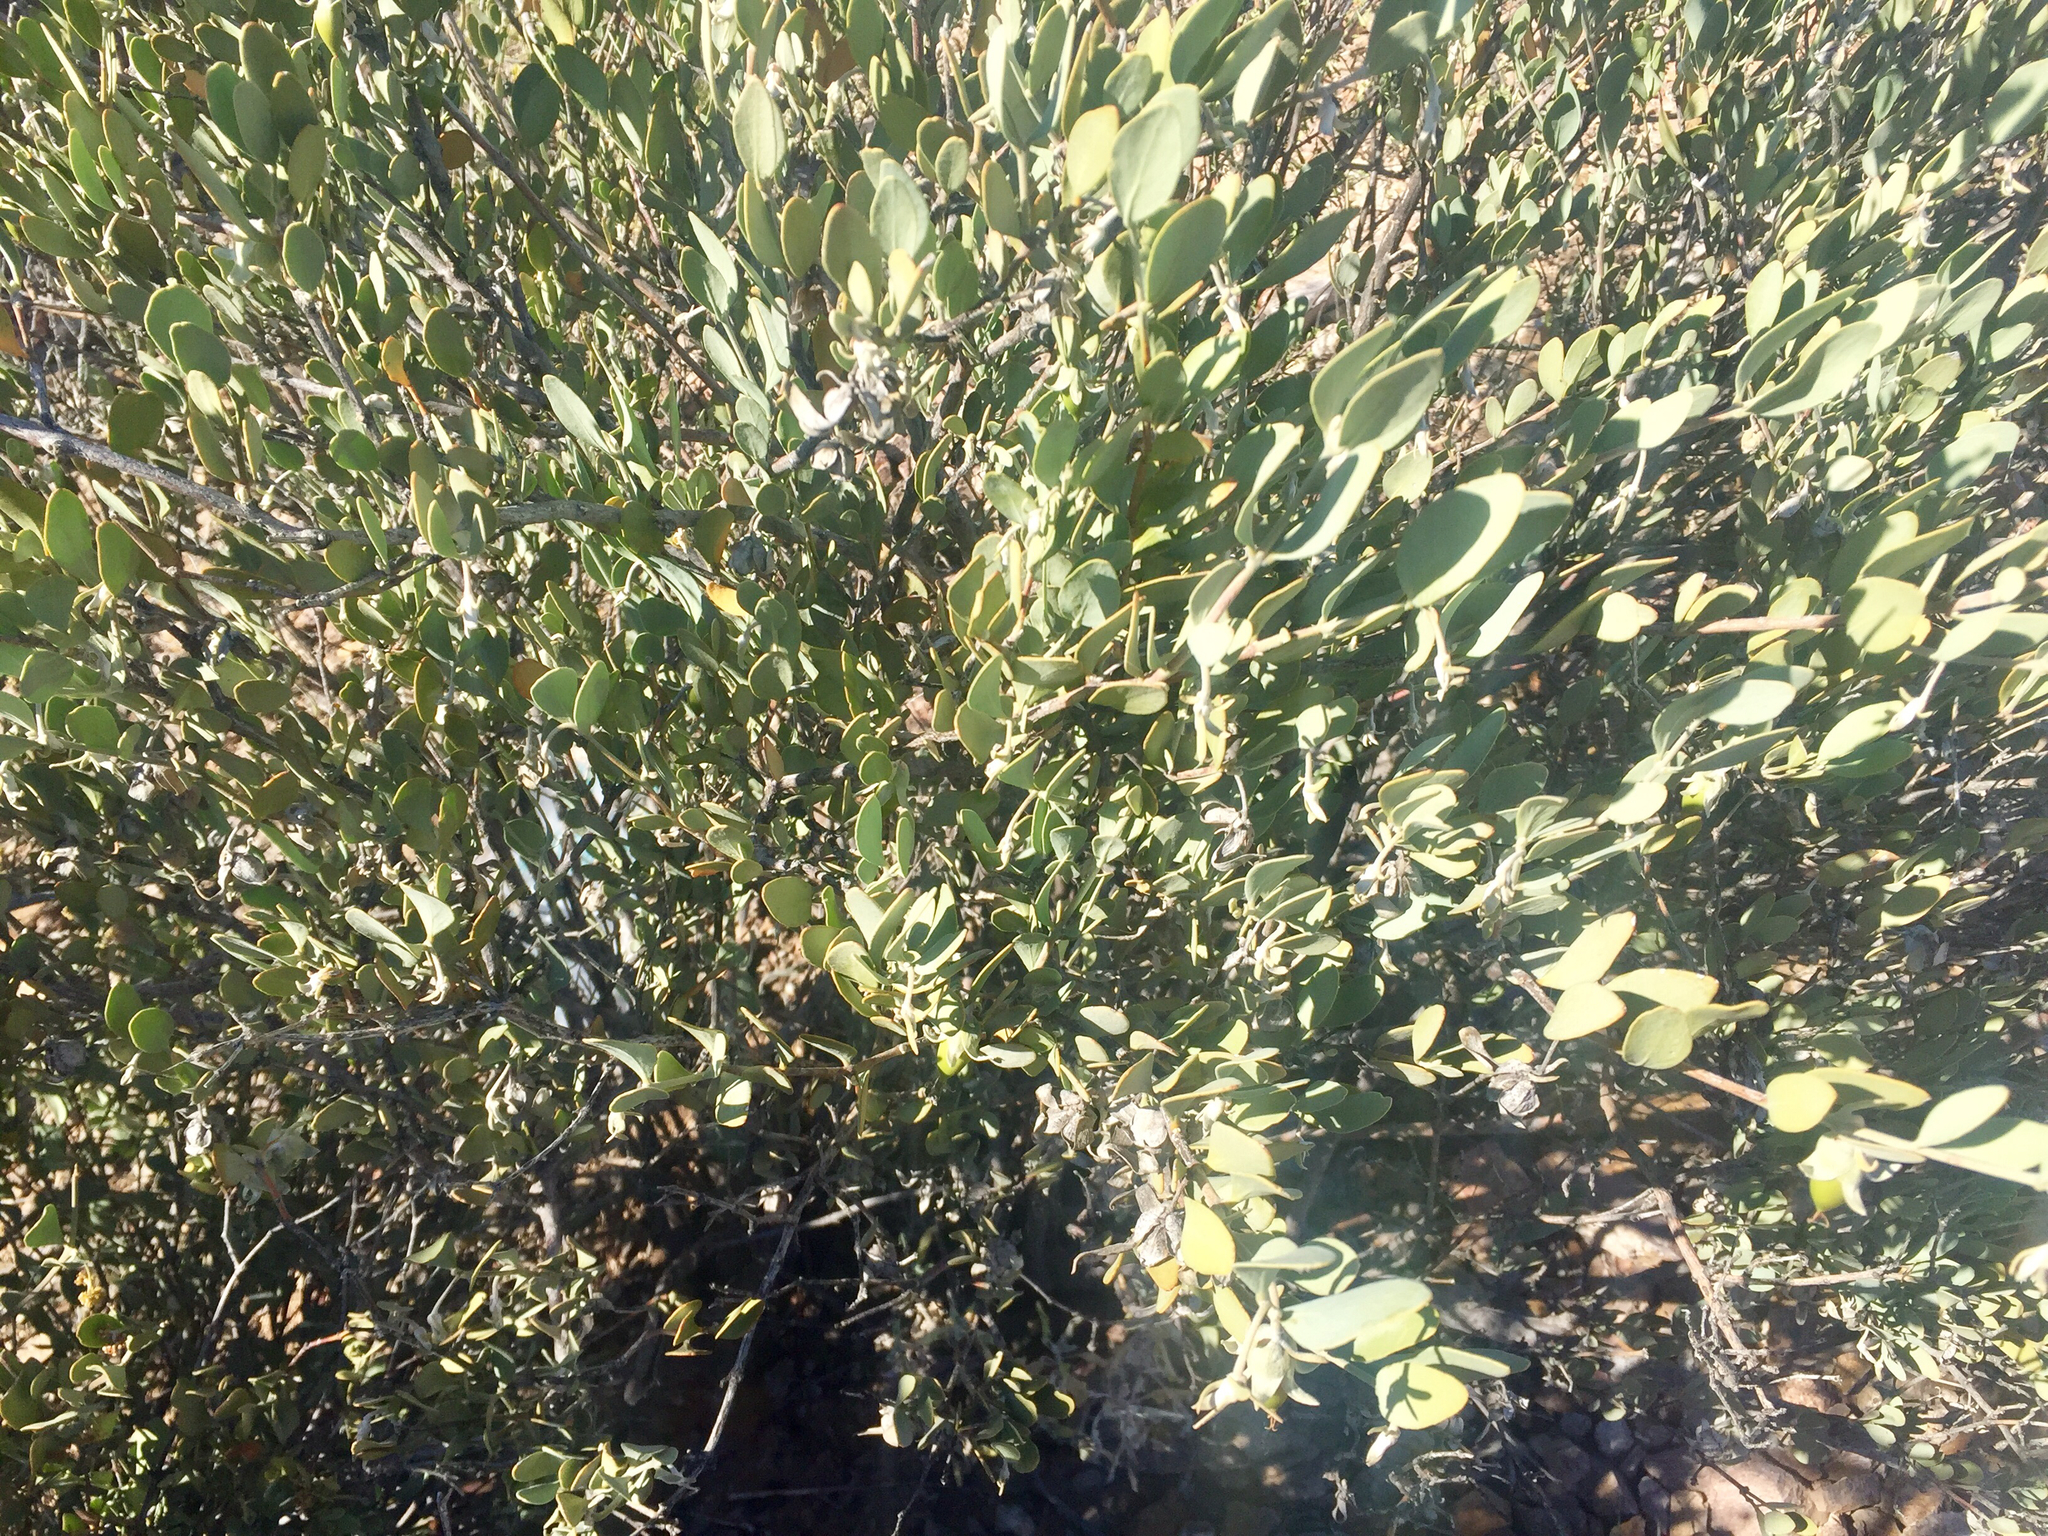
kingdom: Plantae
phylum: Tracheophyta
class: Magnoliopsida
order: Caryophyllales
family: Simmondsiaceae
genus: Simmondsia
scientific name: Simmondsia chinensis
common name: Jojoba
